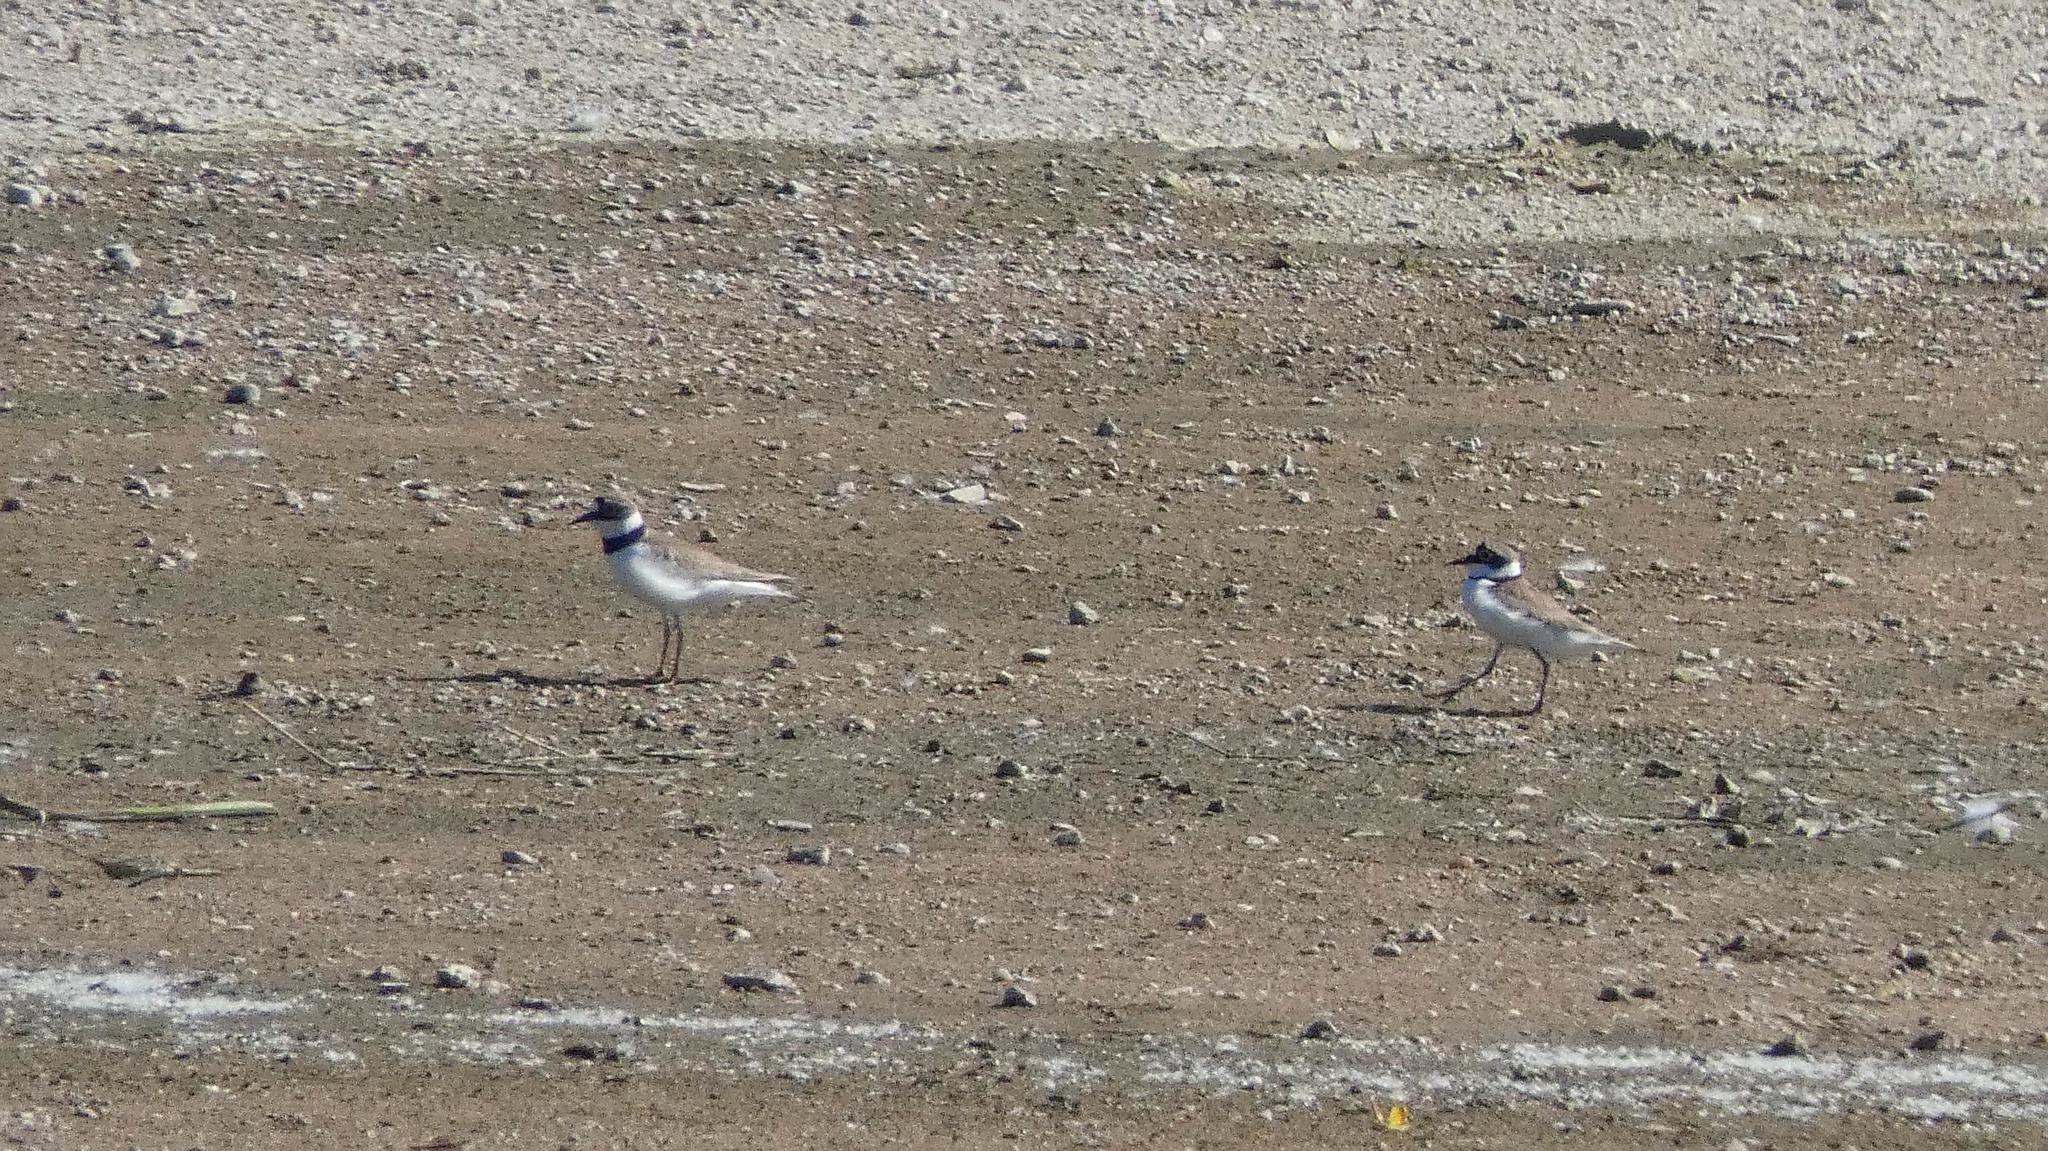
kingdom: Animalia
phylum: Chordata
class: Aves
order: Charadriiformes
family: Charadriidae
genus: Charadrius
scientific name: Charadrius dubius
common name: Little ringed plover
